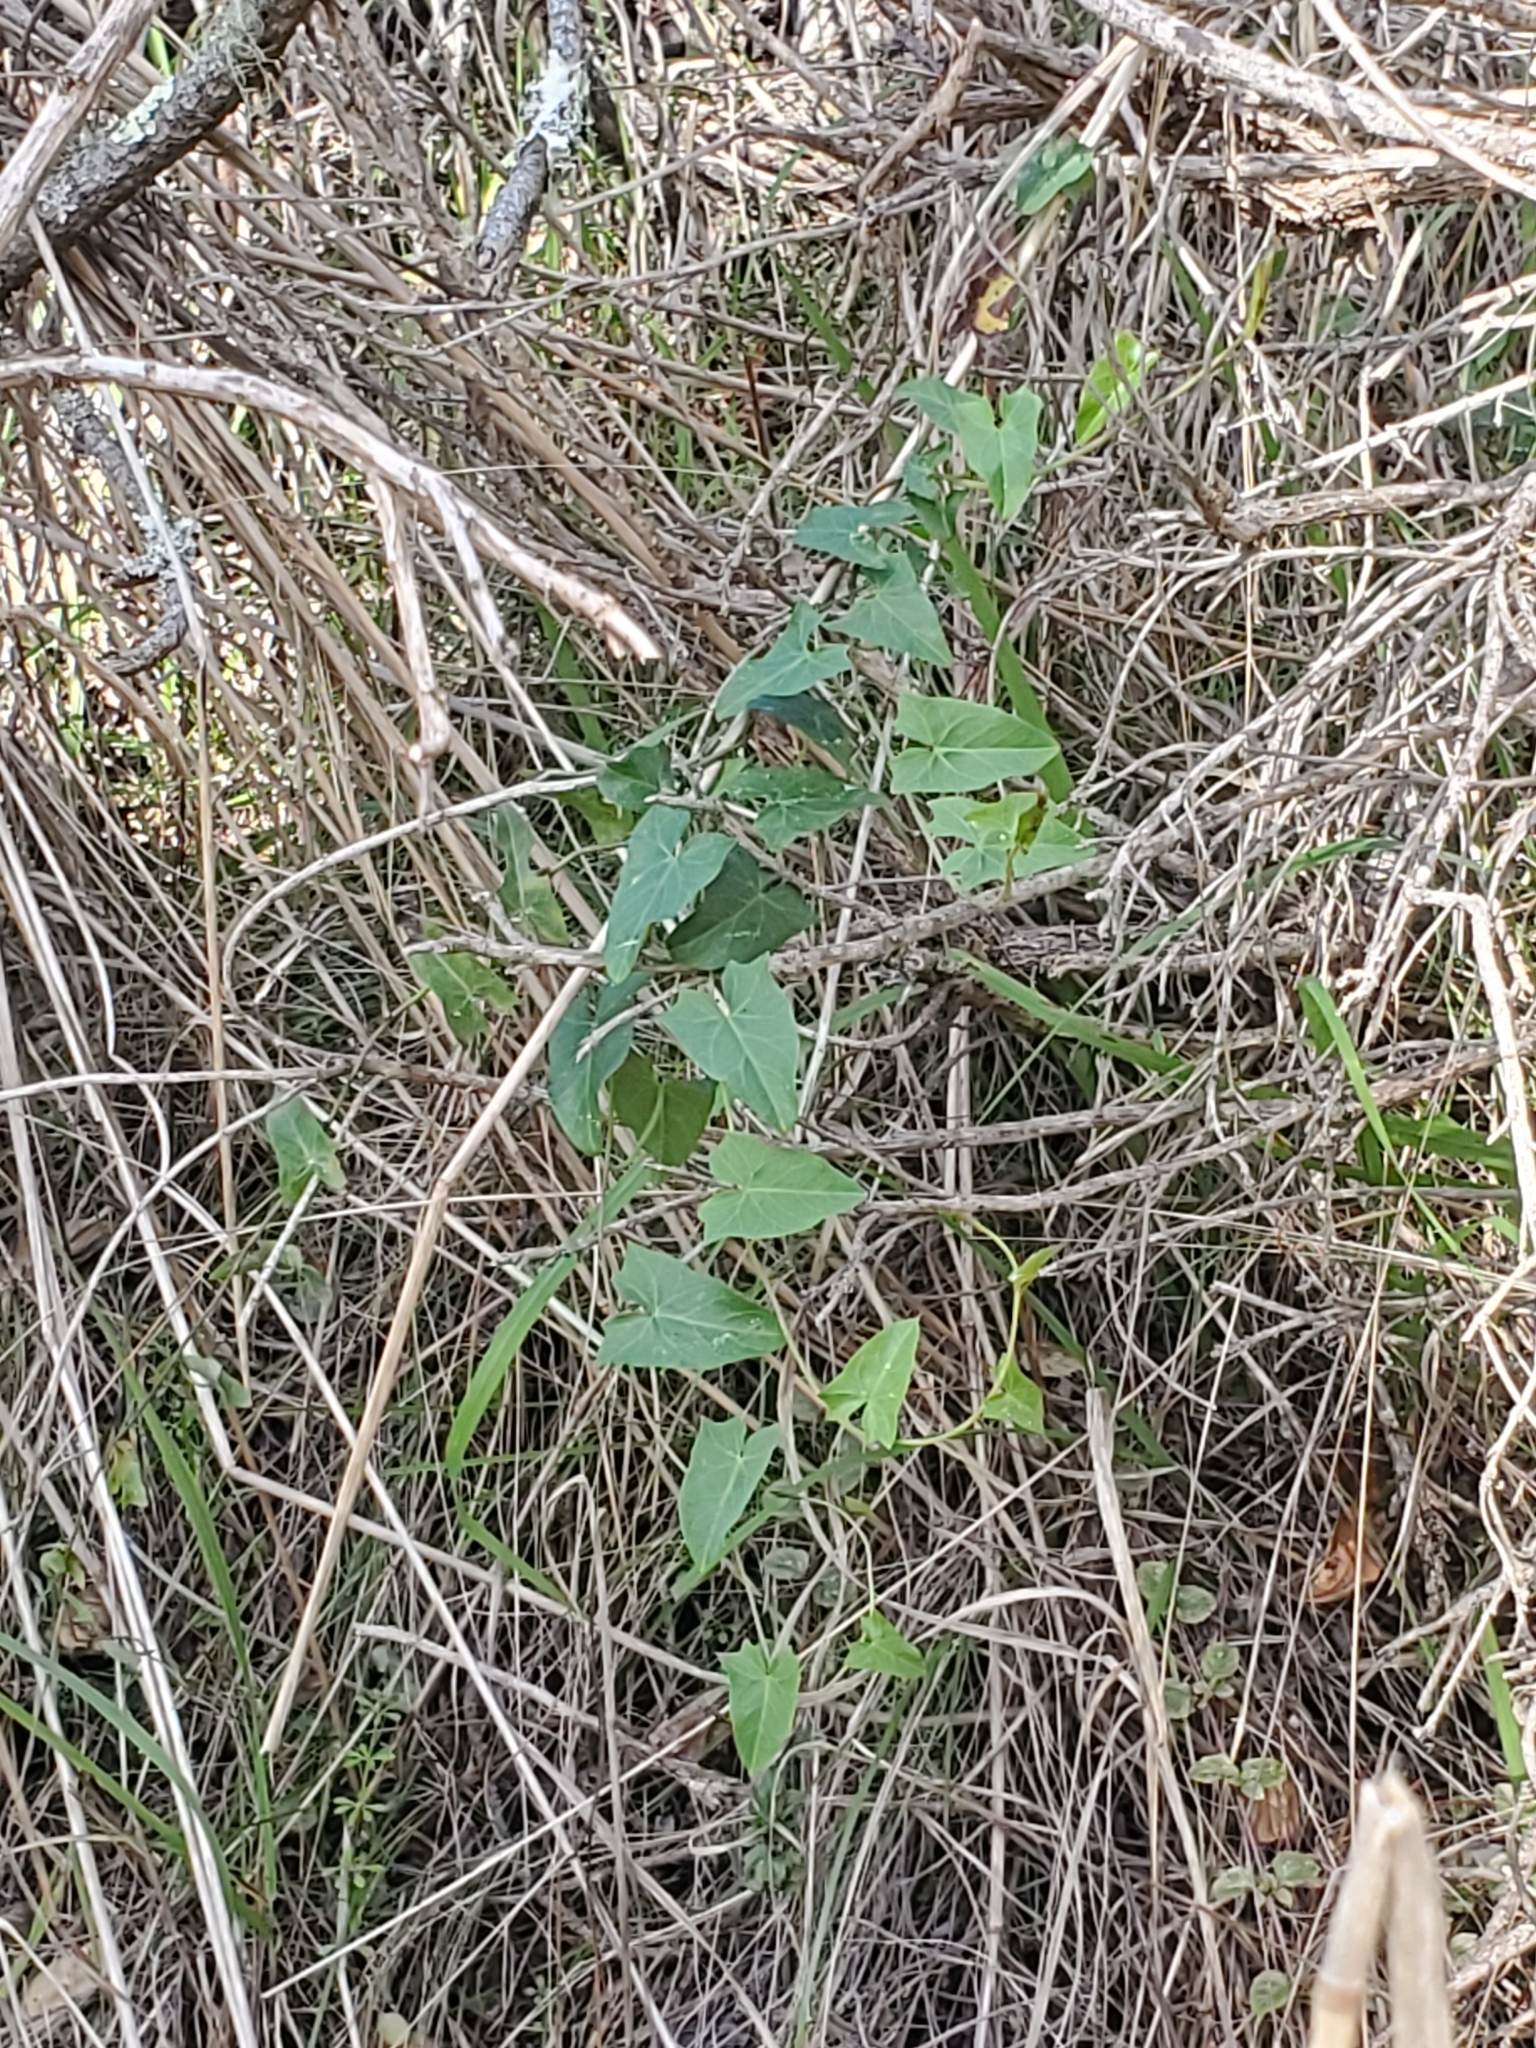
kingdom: Plantae
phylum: Tracheophyta
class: Magnoliopsida
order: Solanales
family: Convolvulaceae
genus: Calystegia
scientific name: Calystegia purpurata
